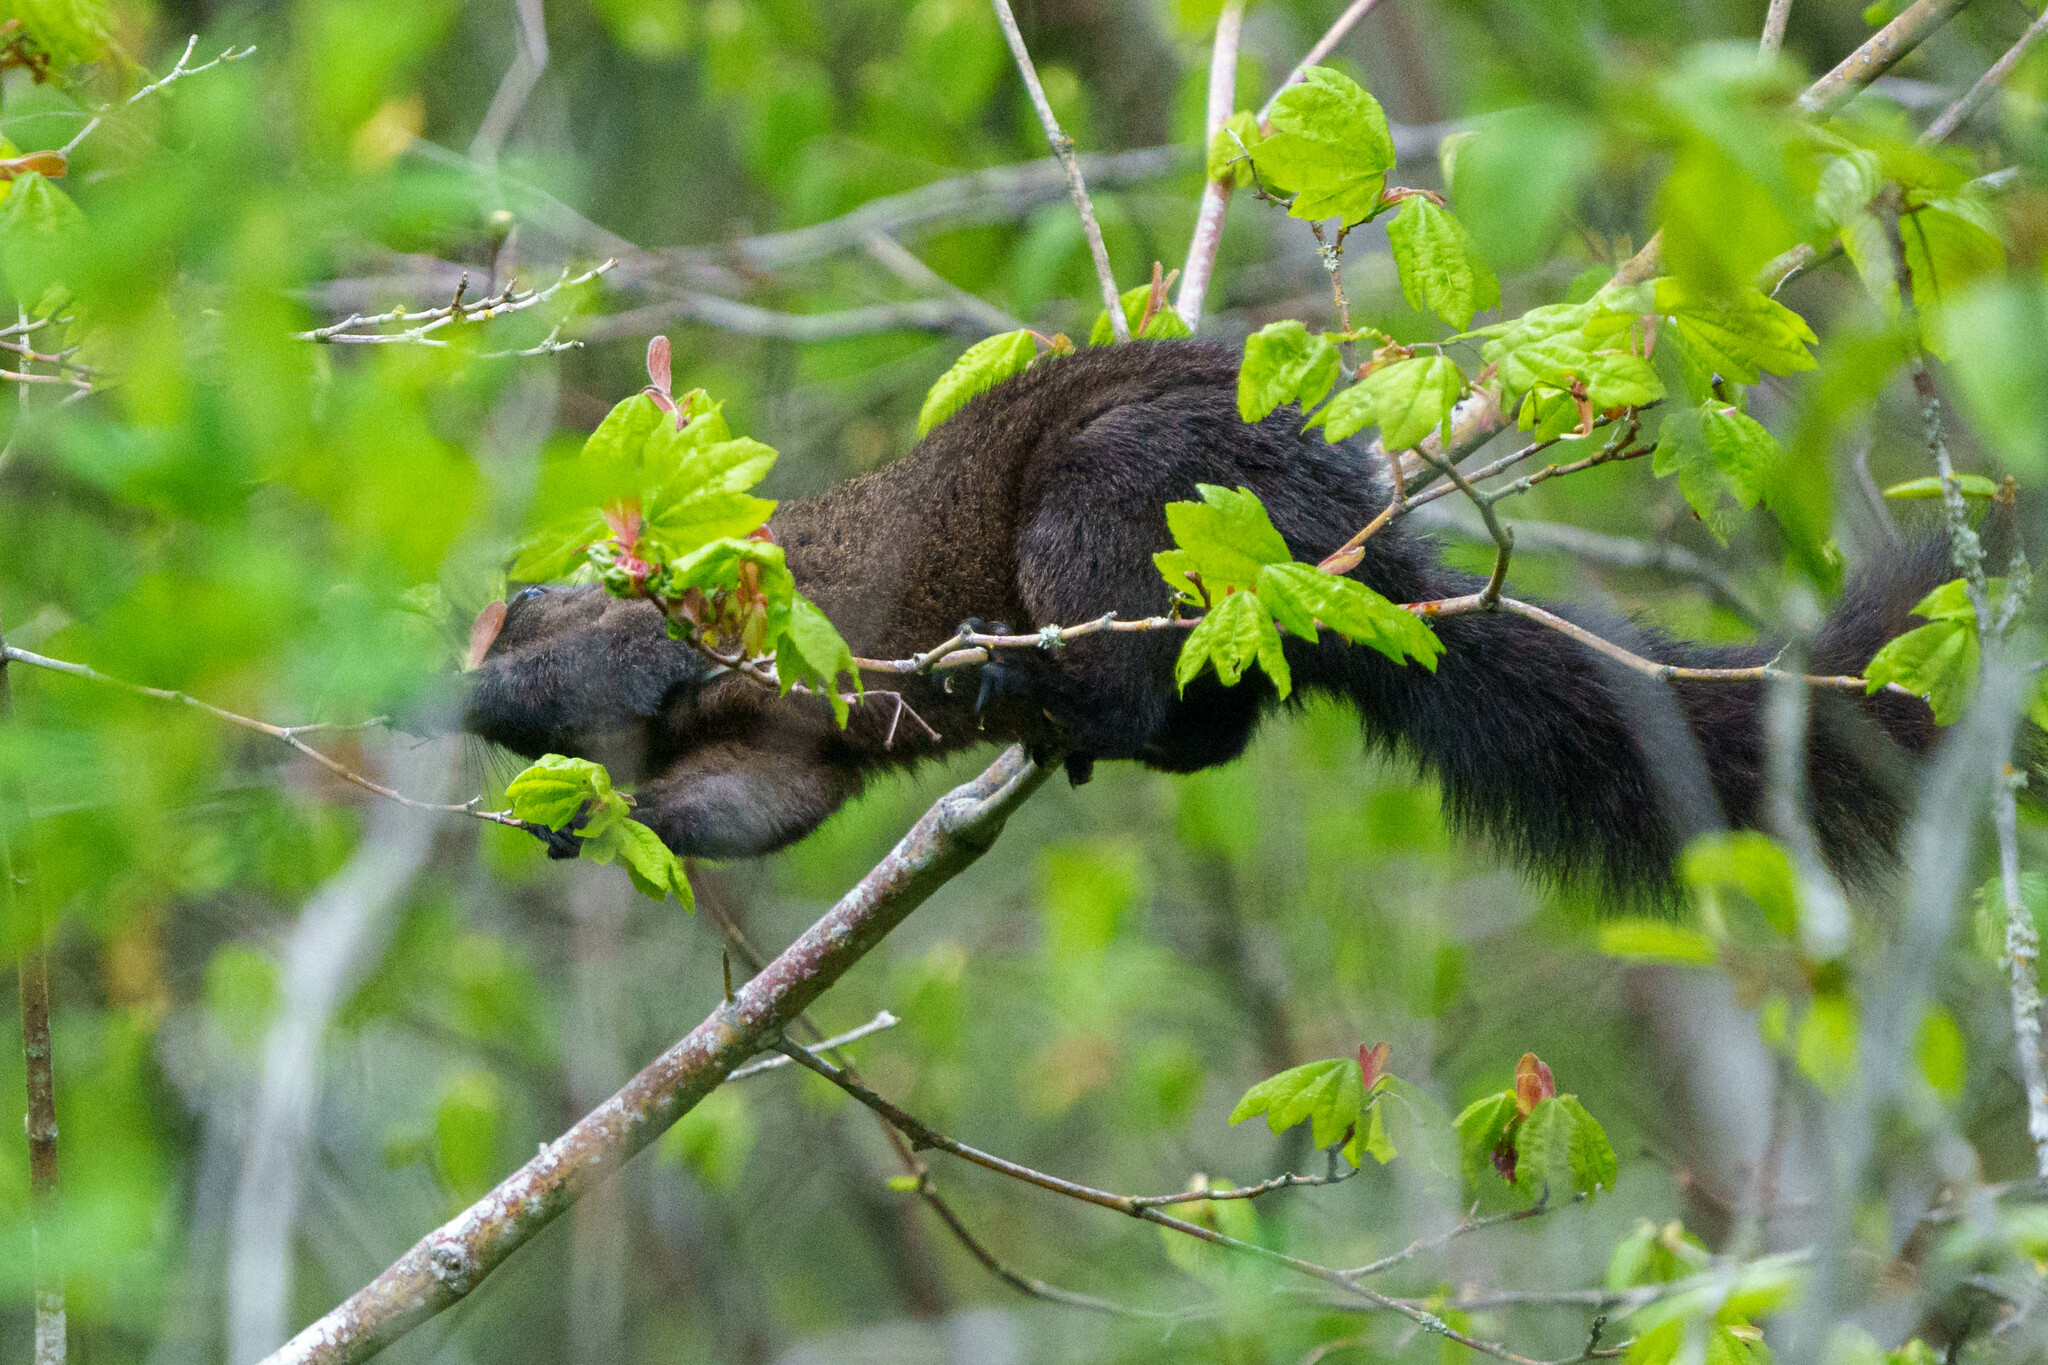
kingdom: Animalia
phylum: Chordata
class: Mammalia
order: Rodentia
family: Sciuridae
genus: Sciurus
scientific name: Sciurus carolinensis
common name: Eastern gray squirrel
